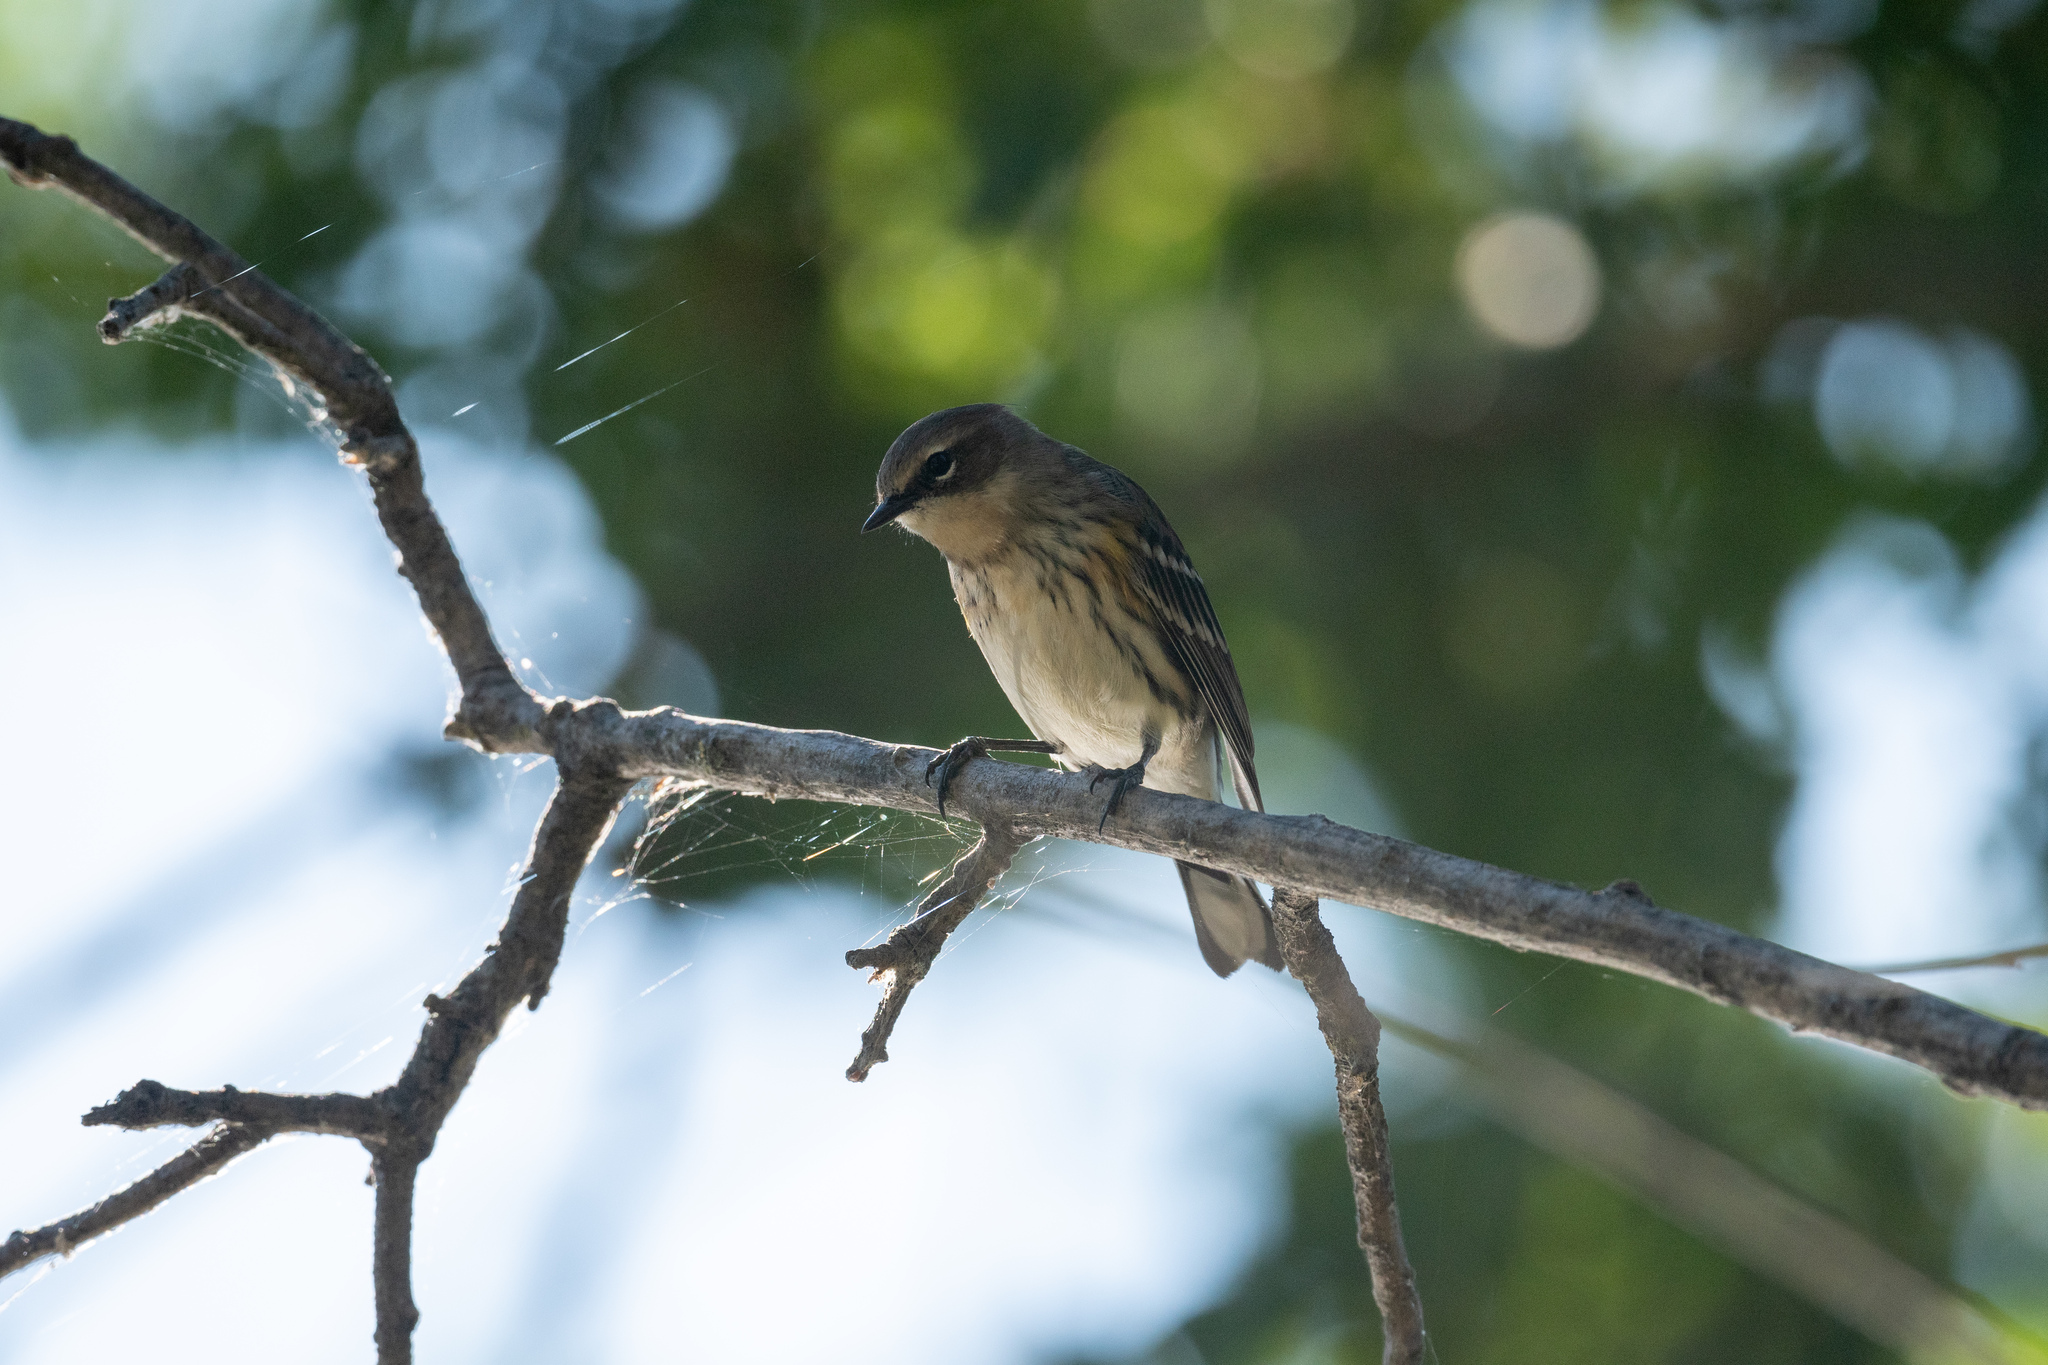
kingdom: Animalia
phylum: Chordata
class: Aves
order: Passeriformes
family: Parulidae
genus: Setophaga
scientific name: Setophaga coronata
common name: Myrtle warbler
